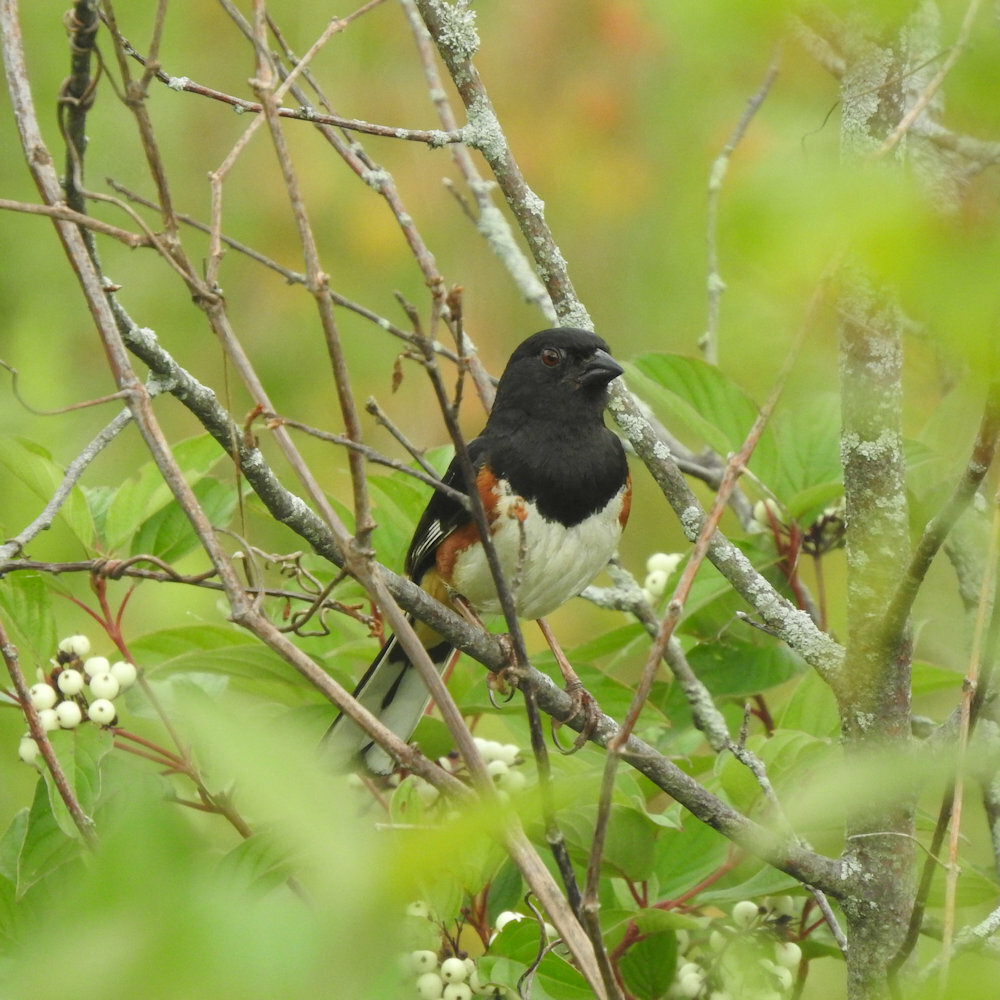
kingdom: Animalia
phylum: Chordata
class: Aves
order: Passeriformes
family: Passerellidae
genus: Pipilo
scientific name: Pipilo erythrophthalmus
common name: Eastern towhee
